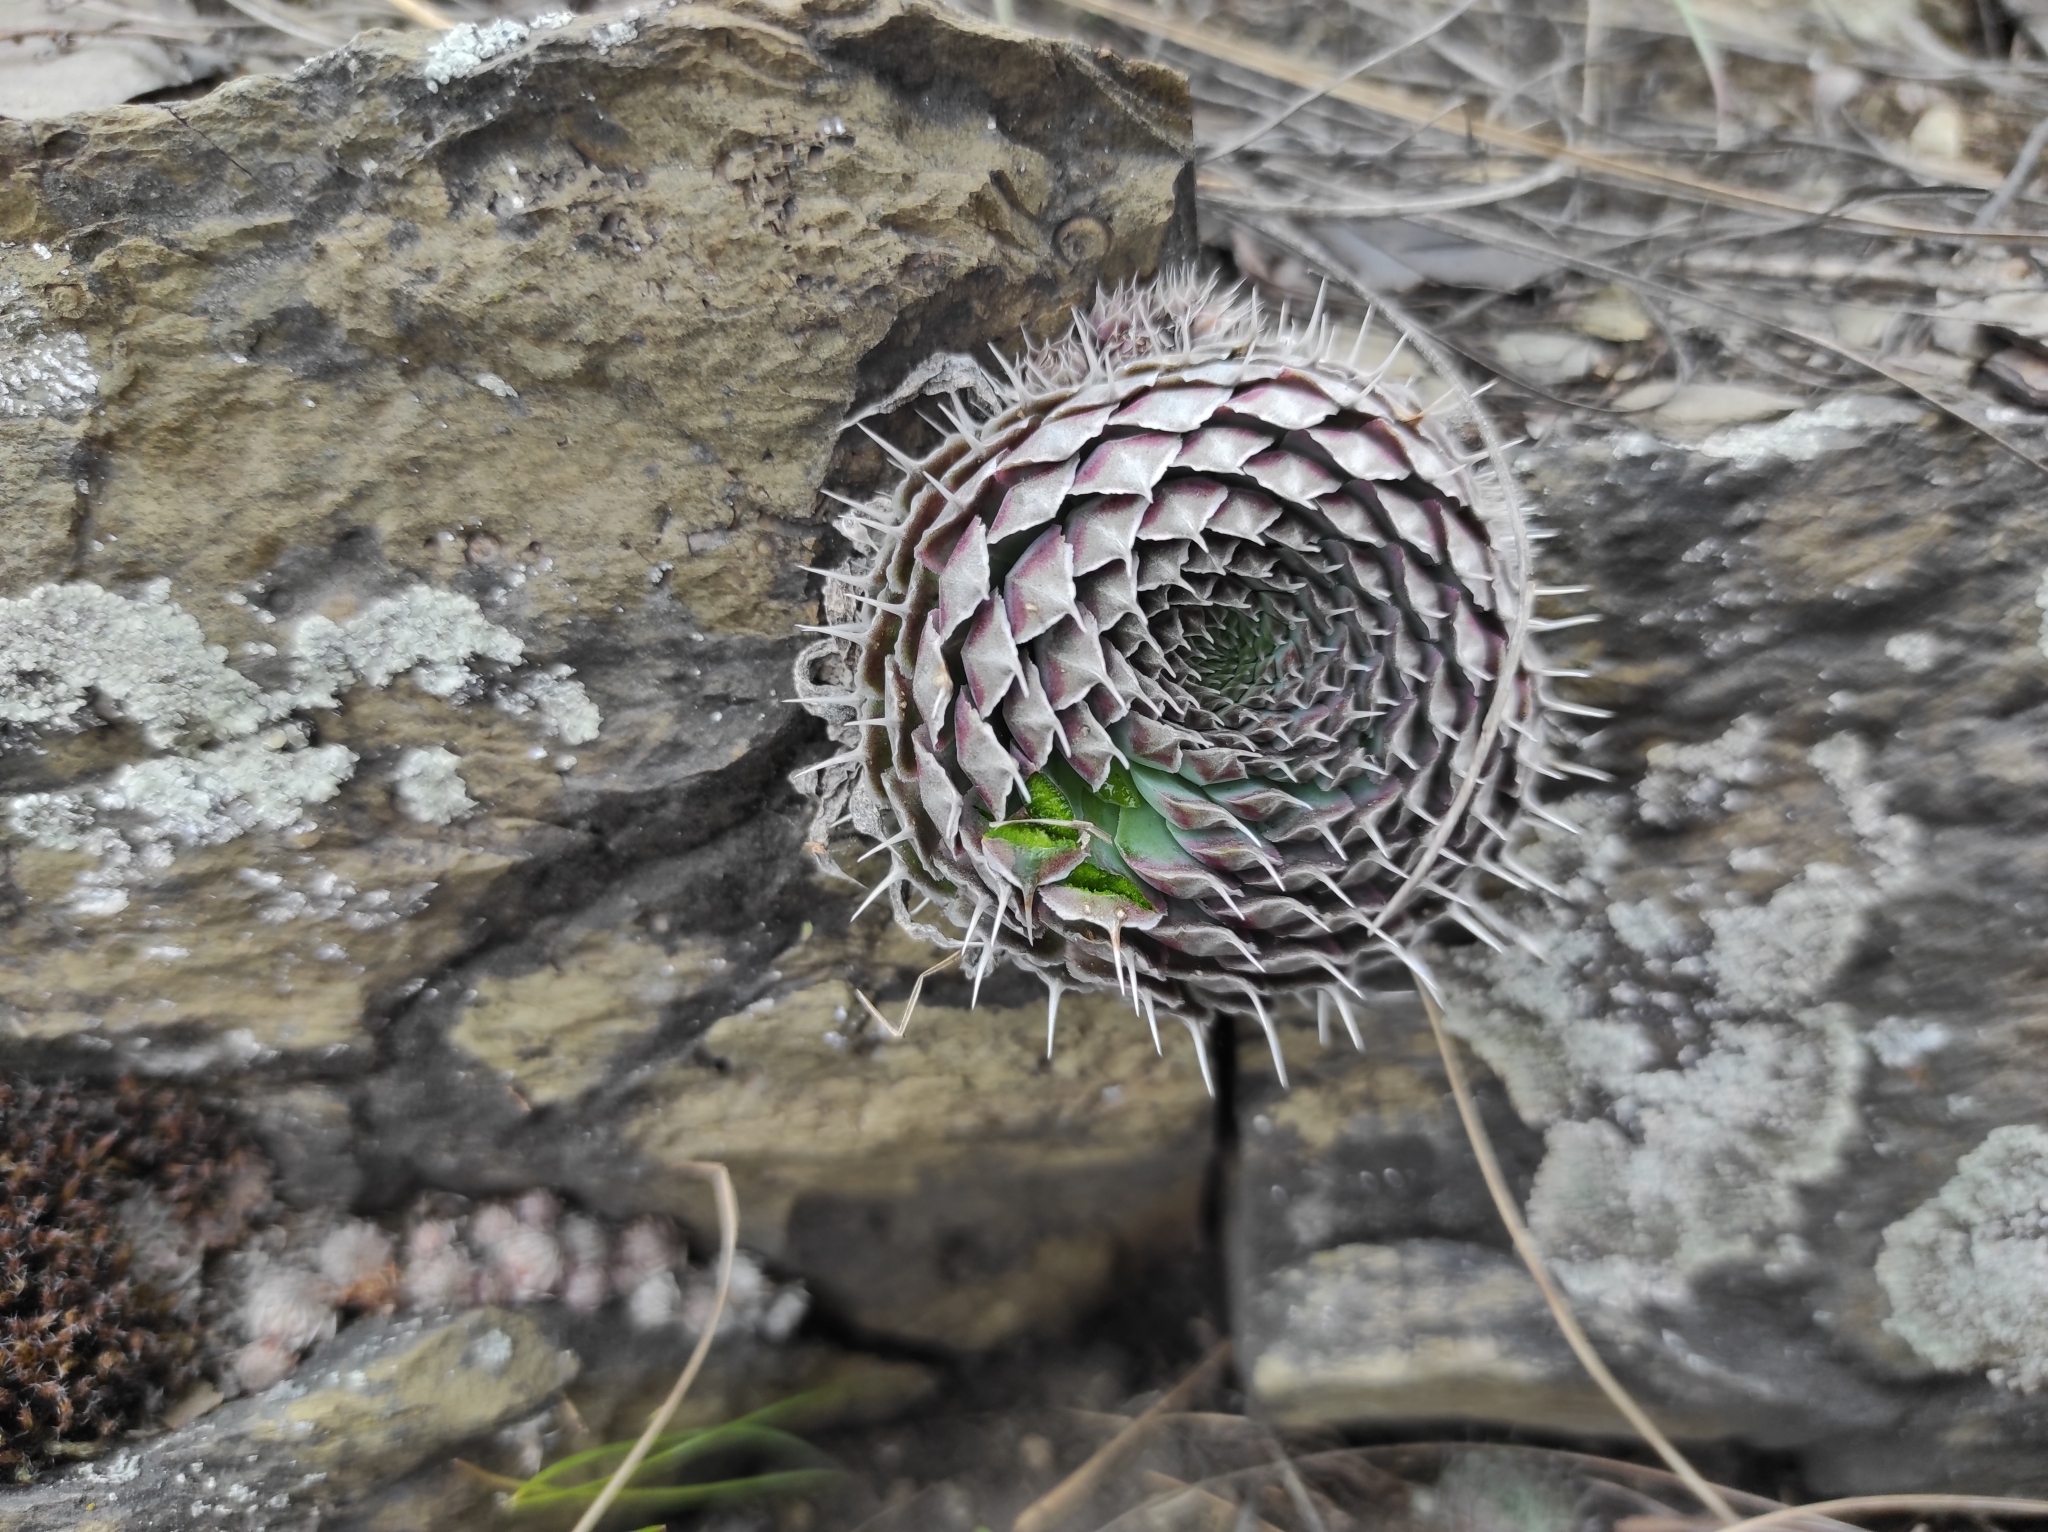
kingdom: Plantae
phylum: Tracheophyta
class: Magnoliopsida
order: Saxifragales
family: Crassulaceae
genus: Orostachys
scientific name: Orostachys spinosa
